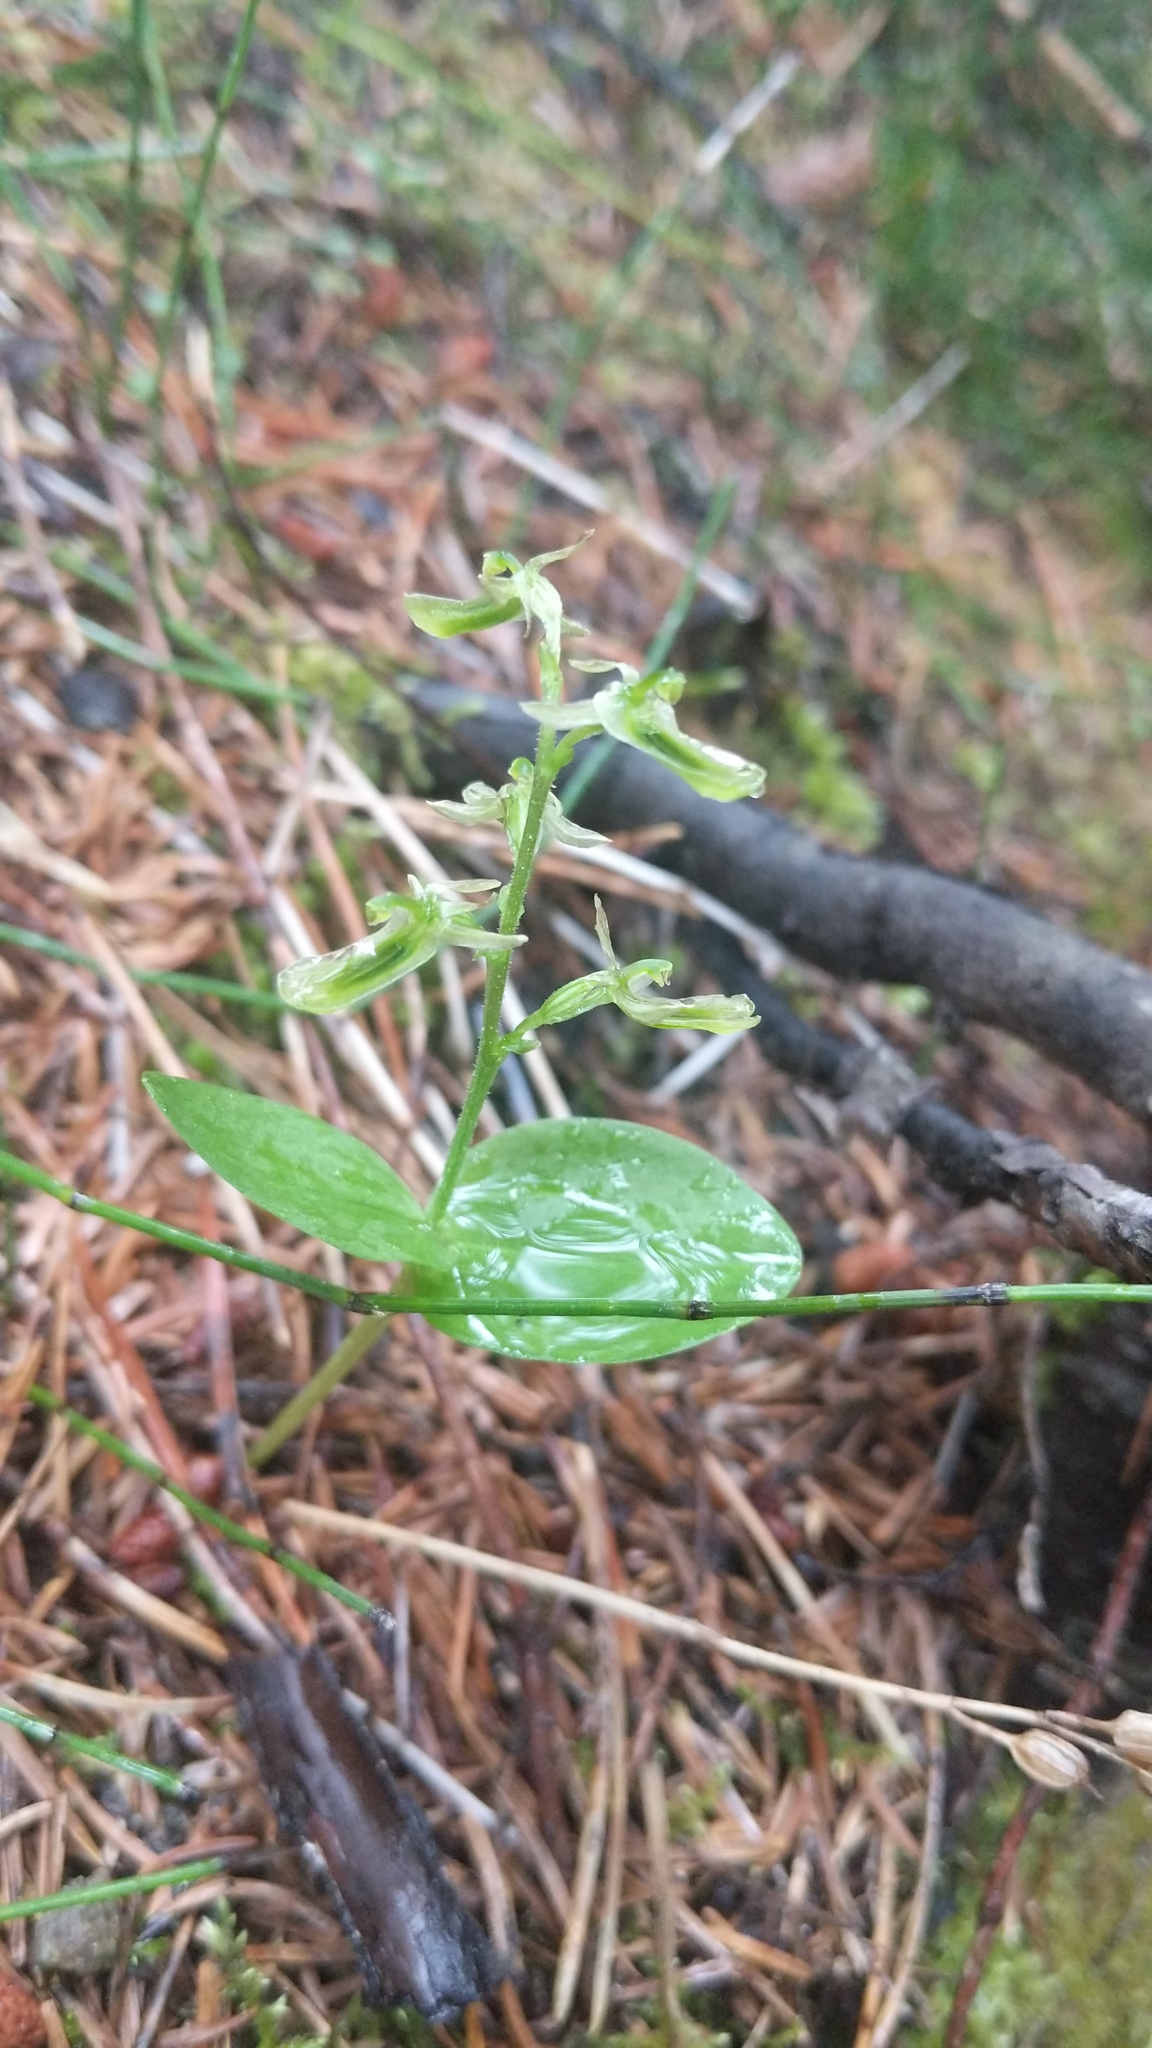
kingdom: Plantae
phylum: Tracheophyta
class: Liliopsida
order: Asparagales
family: Orchidaceae
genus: Neottia
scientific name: Neottia borealis
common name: Northern twayblade
